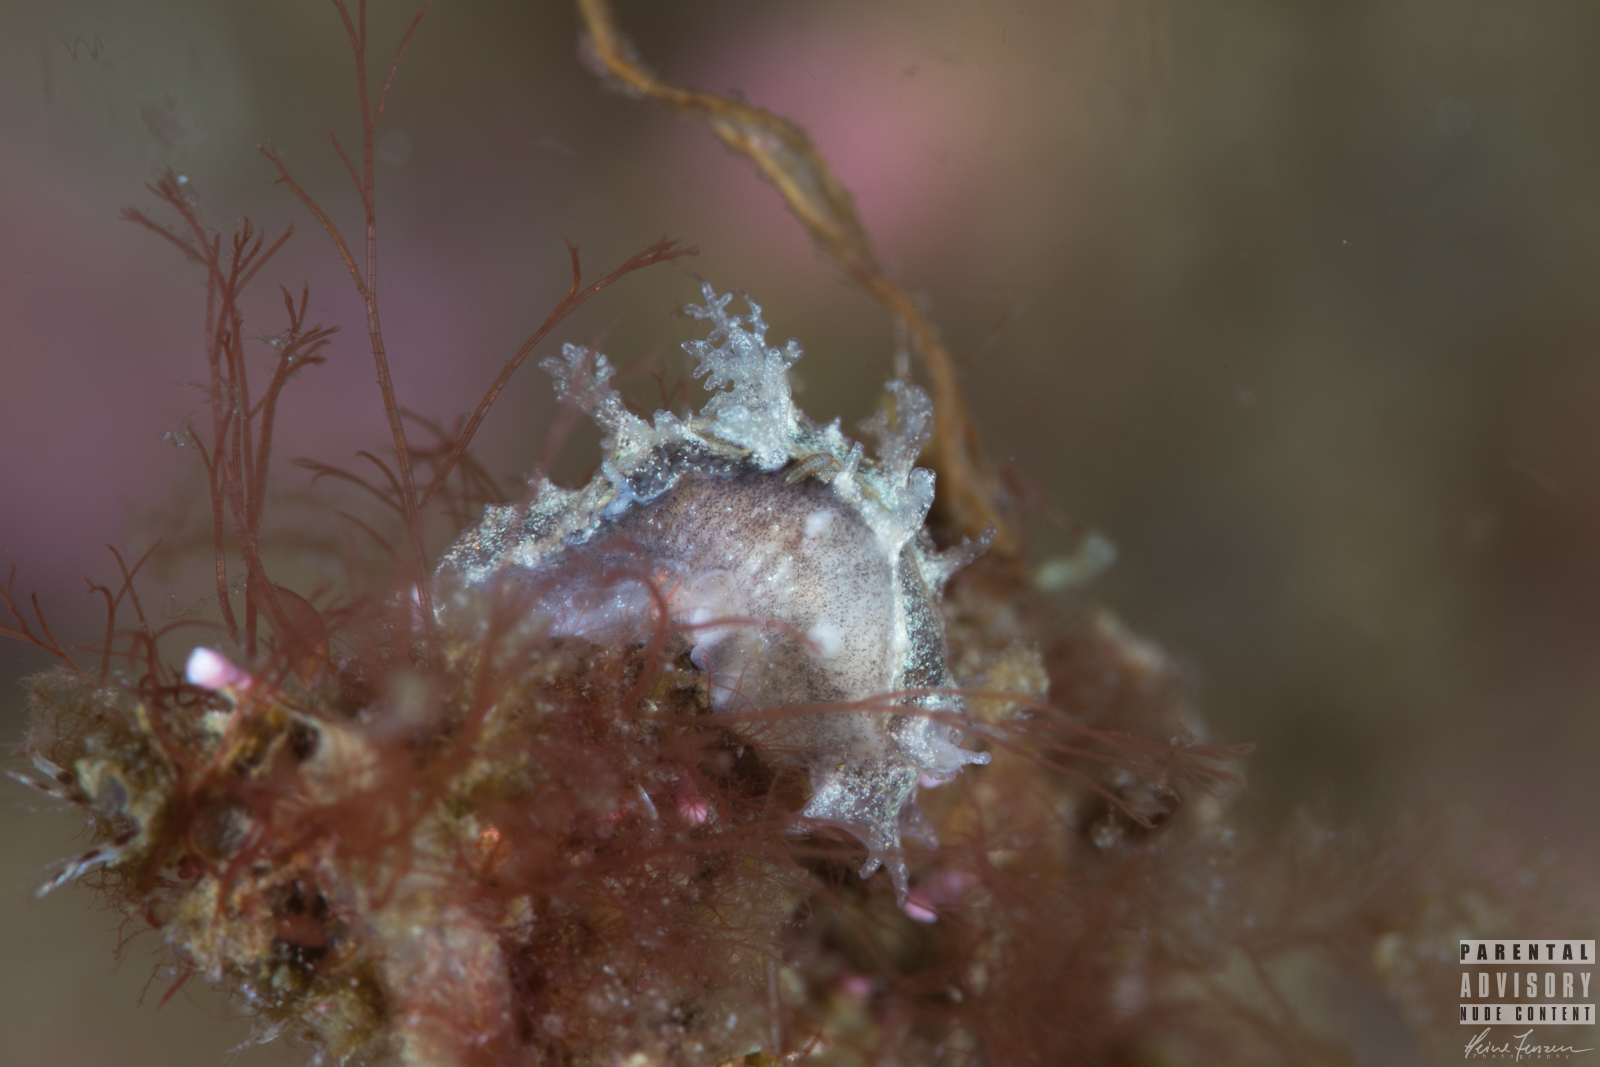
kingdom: Animalia
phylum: Mollusca
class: Gastropoda
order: Nudibranchia
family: Tritoniidae
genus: Duvaucelia
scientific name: Duvaucelia plebeia
